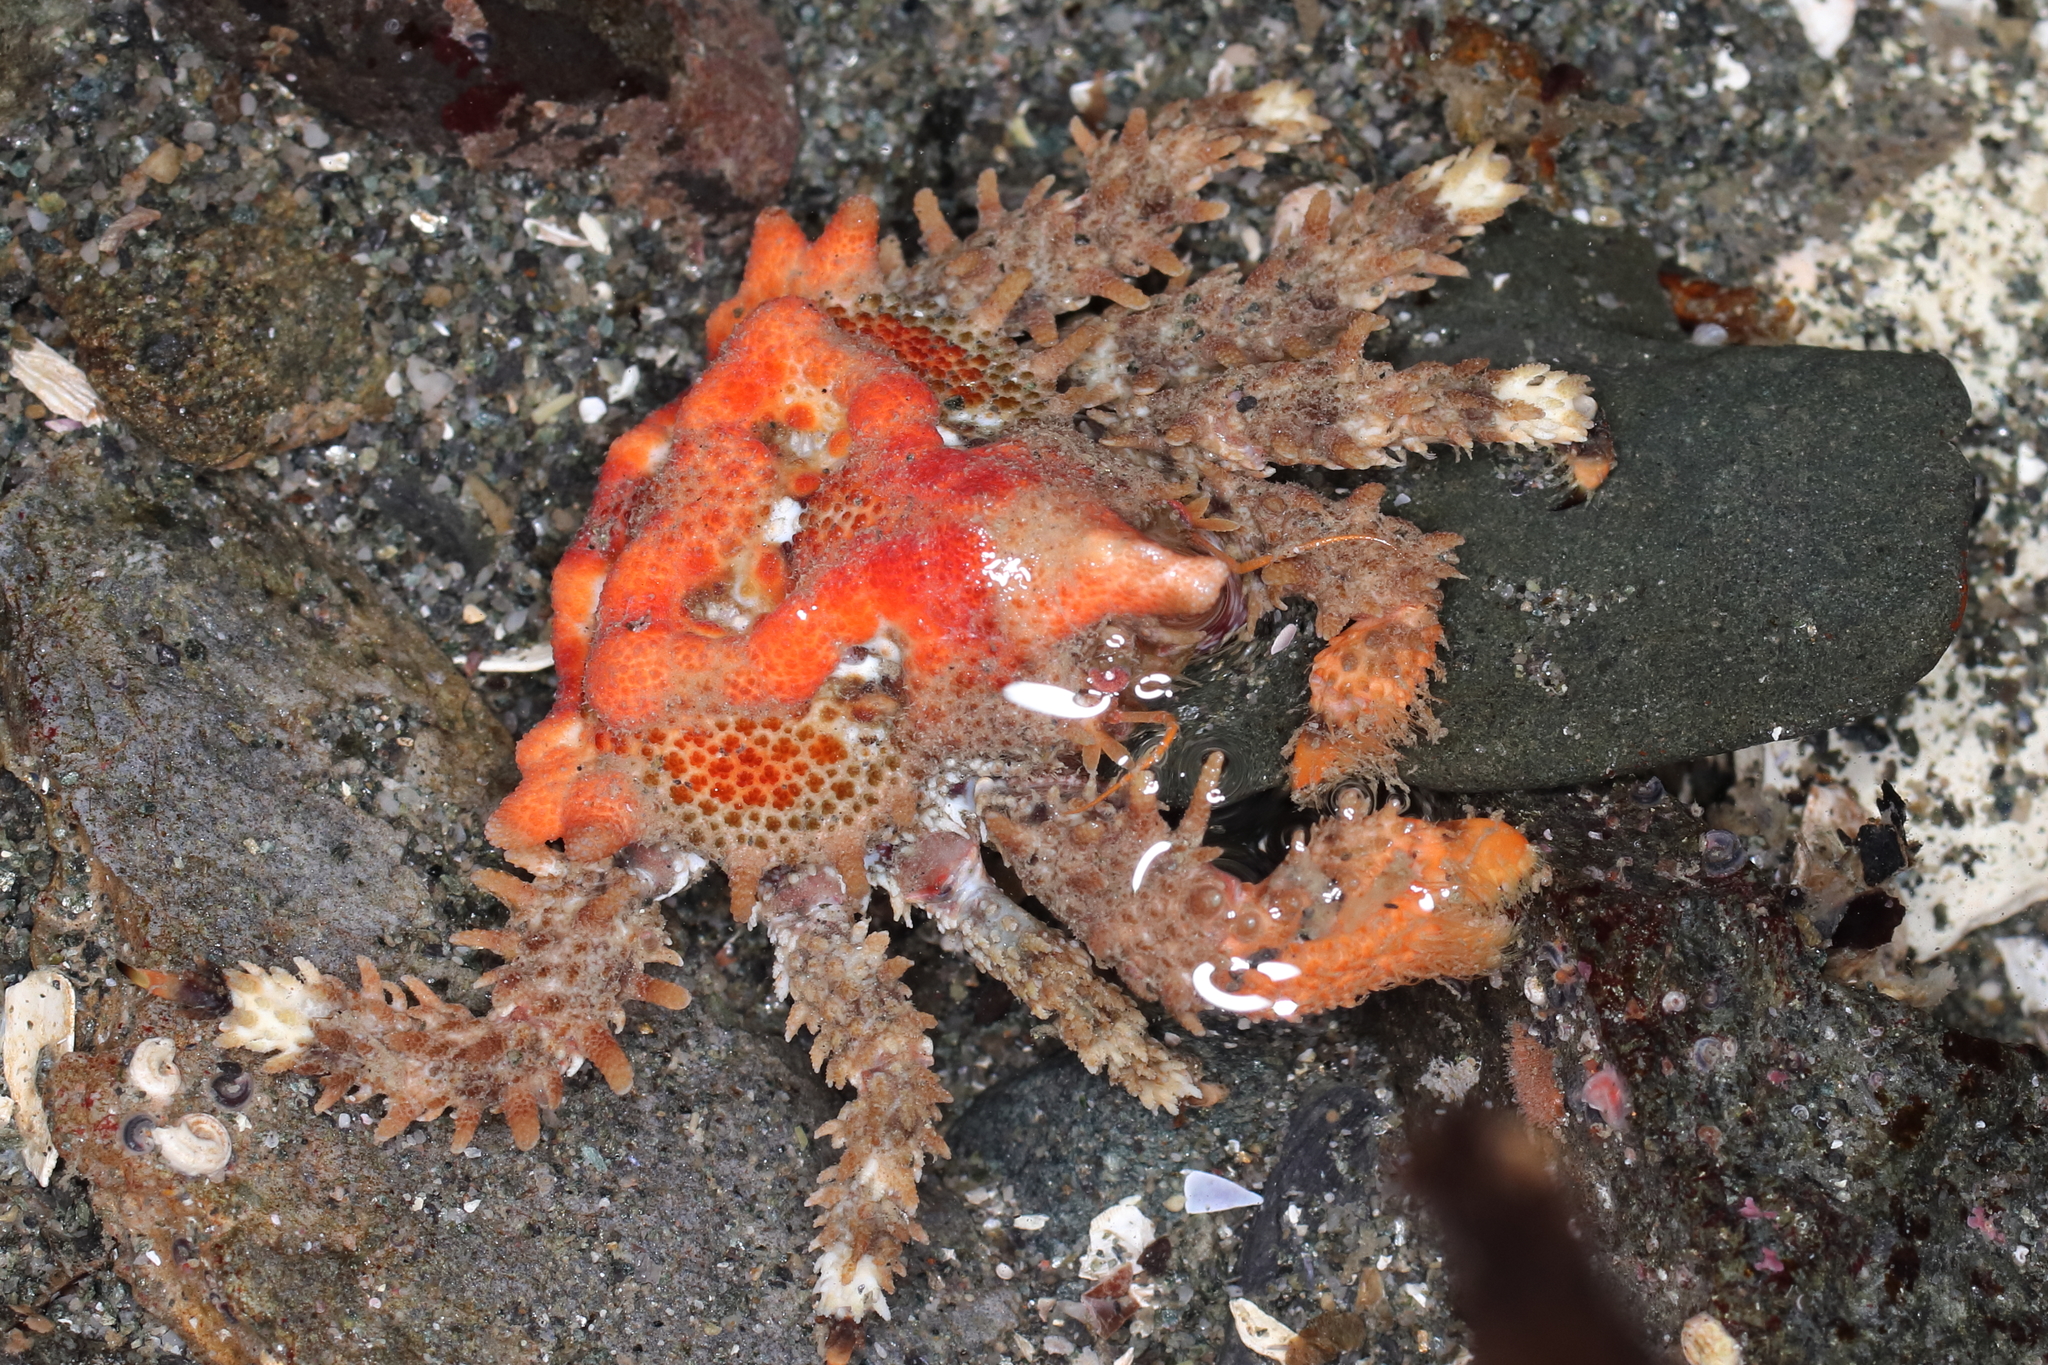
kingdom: Animalia
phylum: Arthropoda
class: Malacostraca
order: Decapoda
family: Lithodidae
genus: Phyllolithodes
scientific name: Phyllolithodes papillosus
